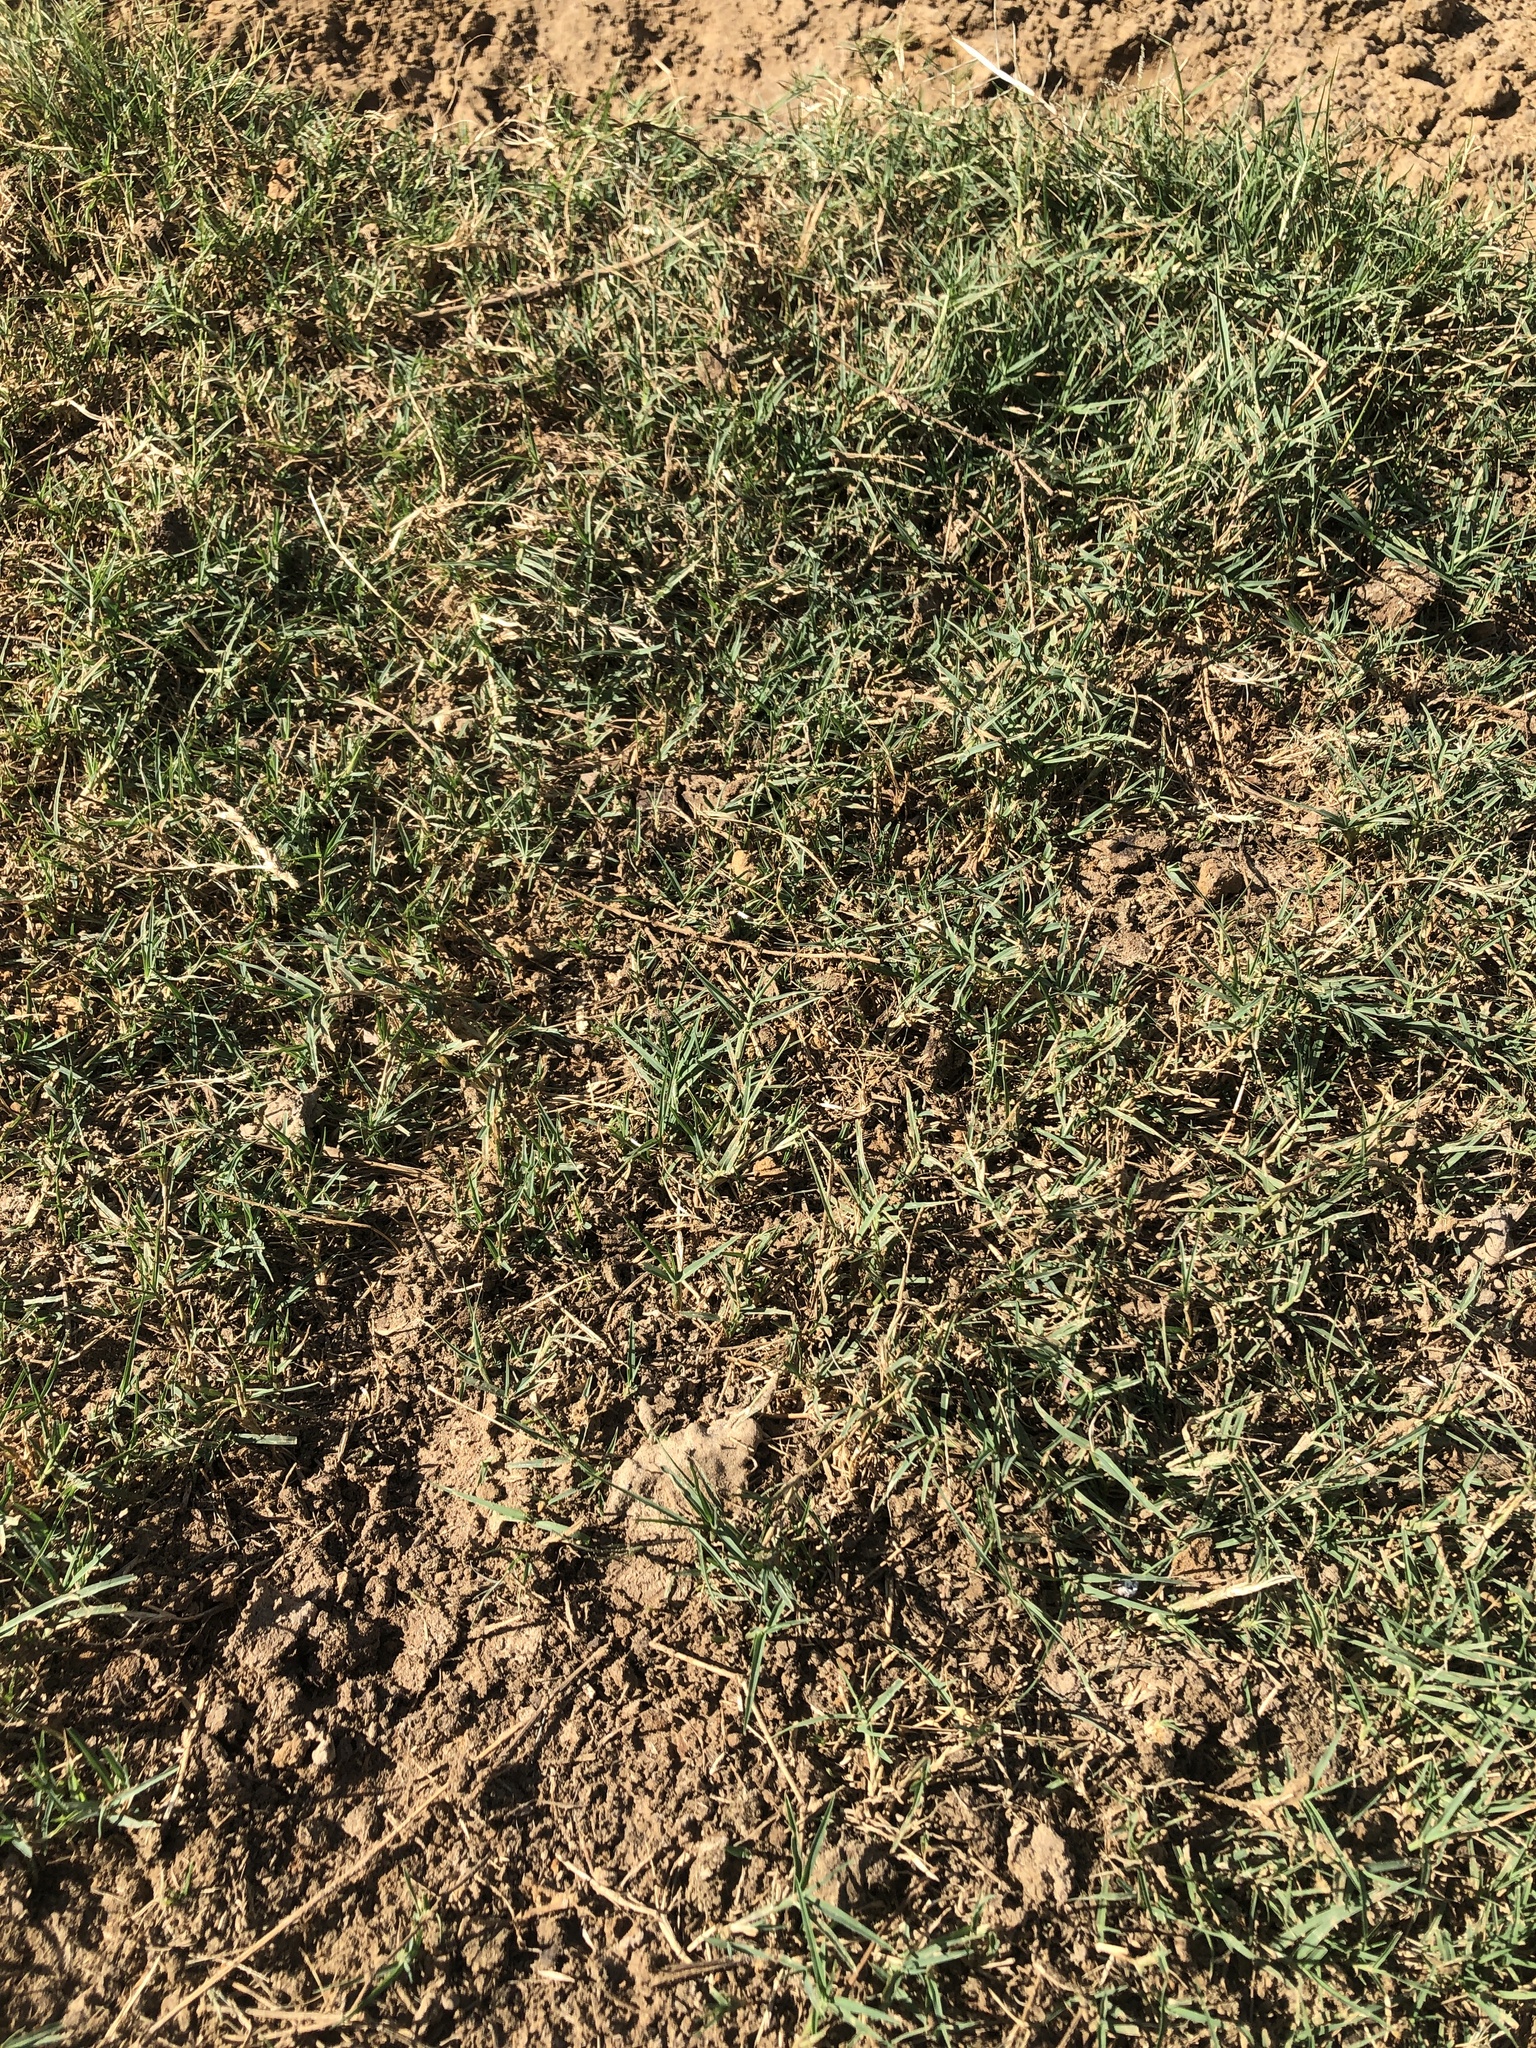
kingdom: Plantae
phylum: Tracheophyta
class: Liliopsida
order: Poales
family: Poaceae
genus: Cynodon
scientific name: Cynodon dactylon
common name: Bermuda grass
